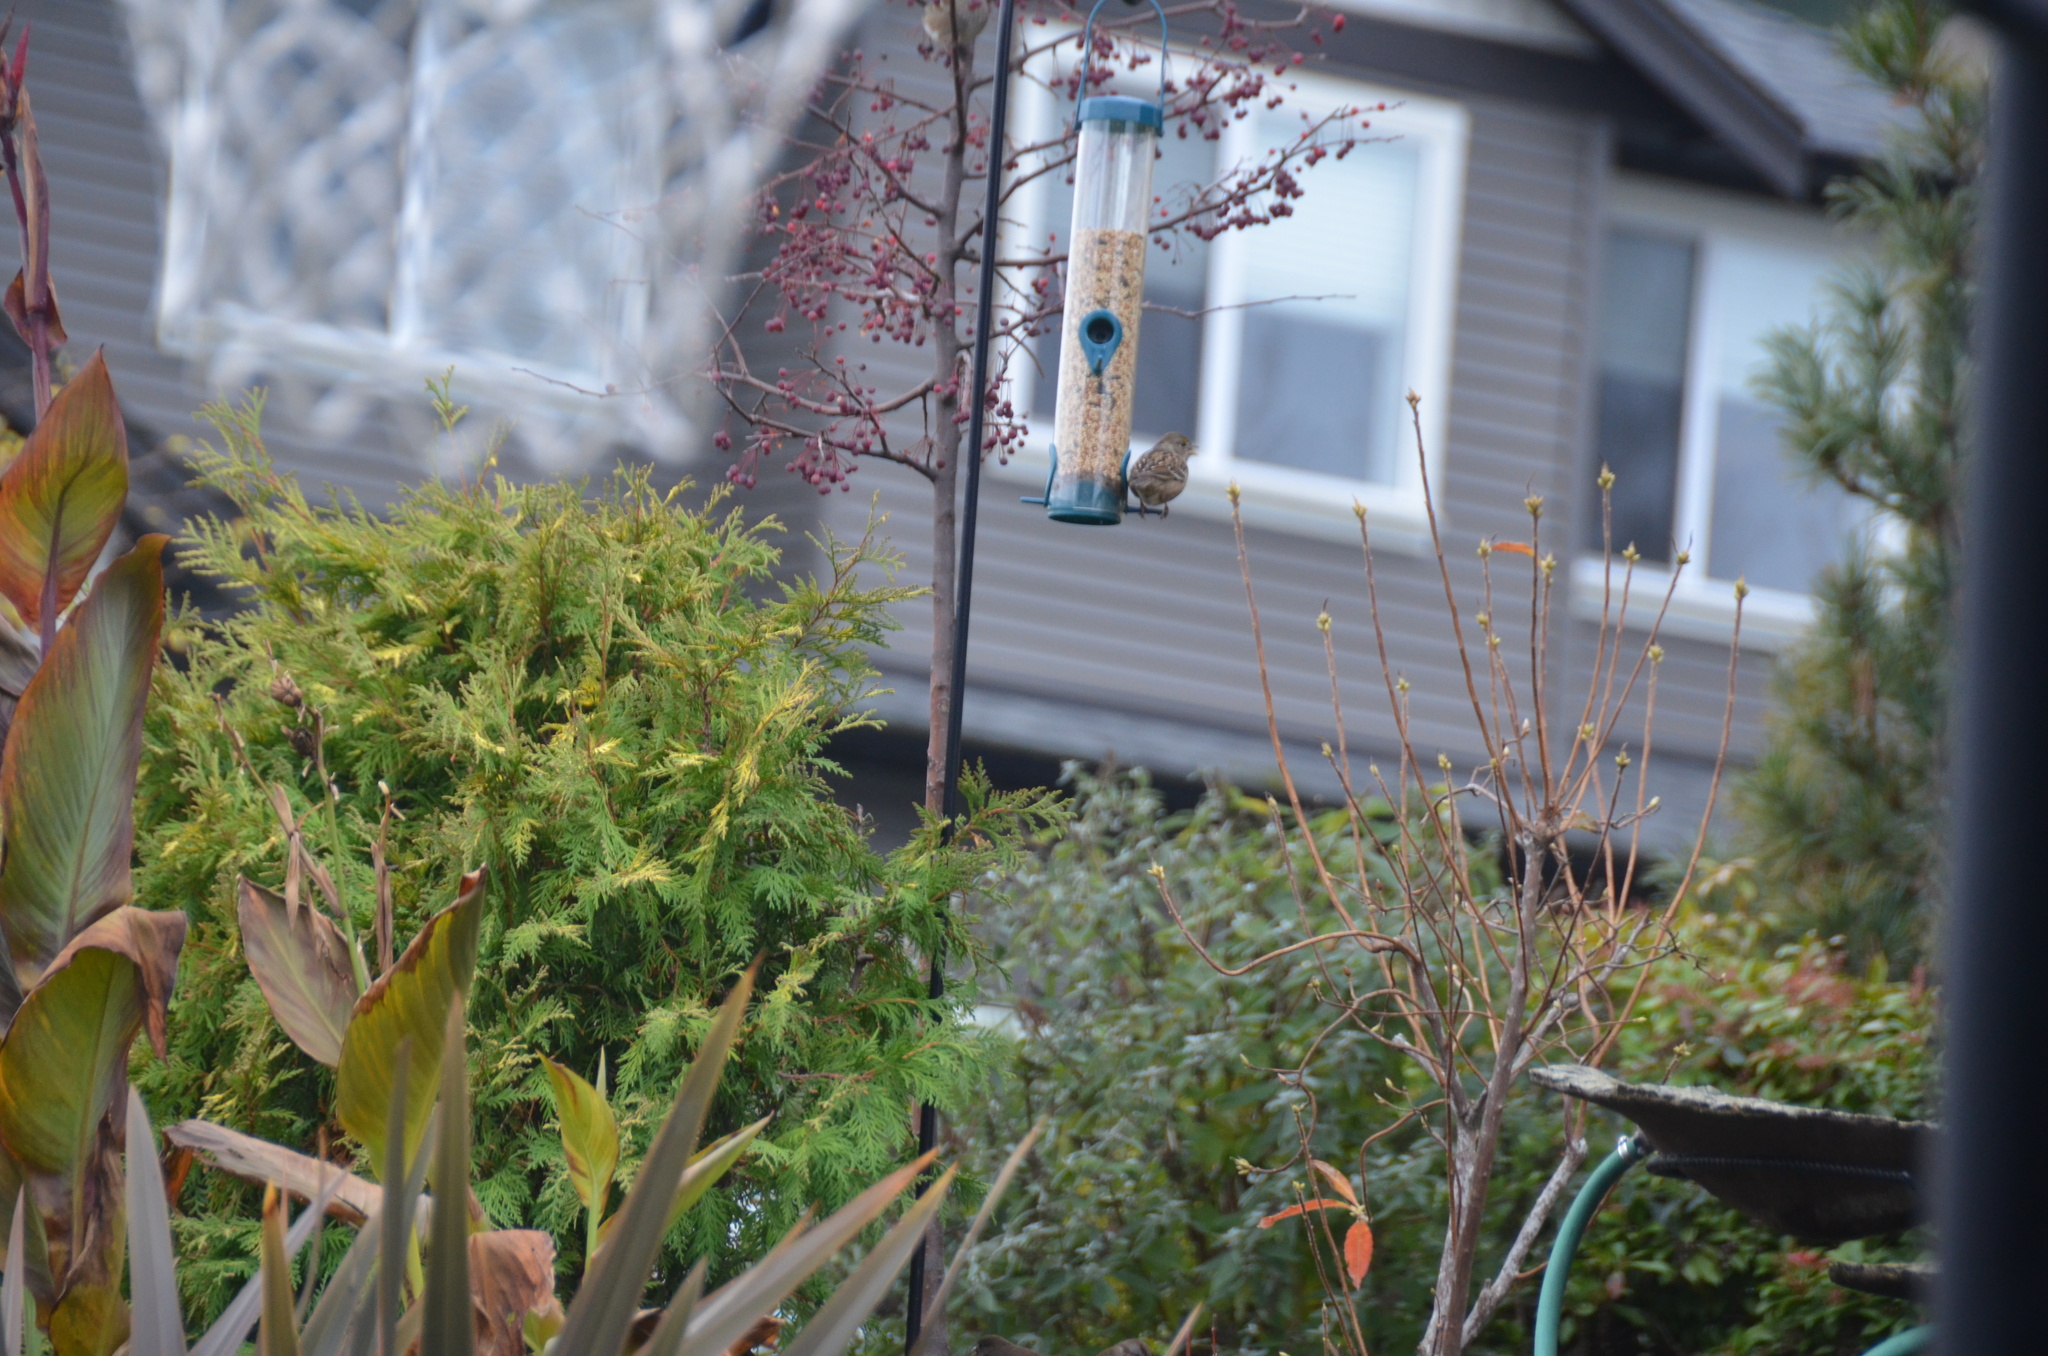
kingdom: Animalia
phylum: Chordata
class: Aves
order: Passeriformes
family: Passerellidae
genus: Zonotrichia
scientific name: Zonotrichia atricapilla
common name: Golden-crowned sparrow
